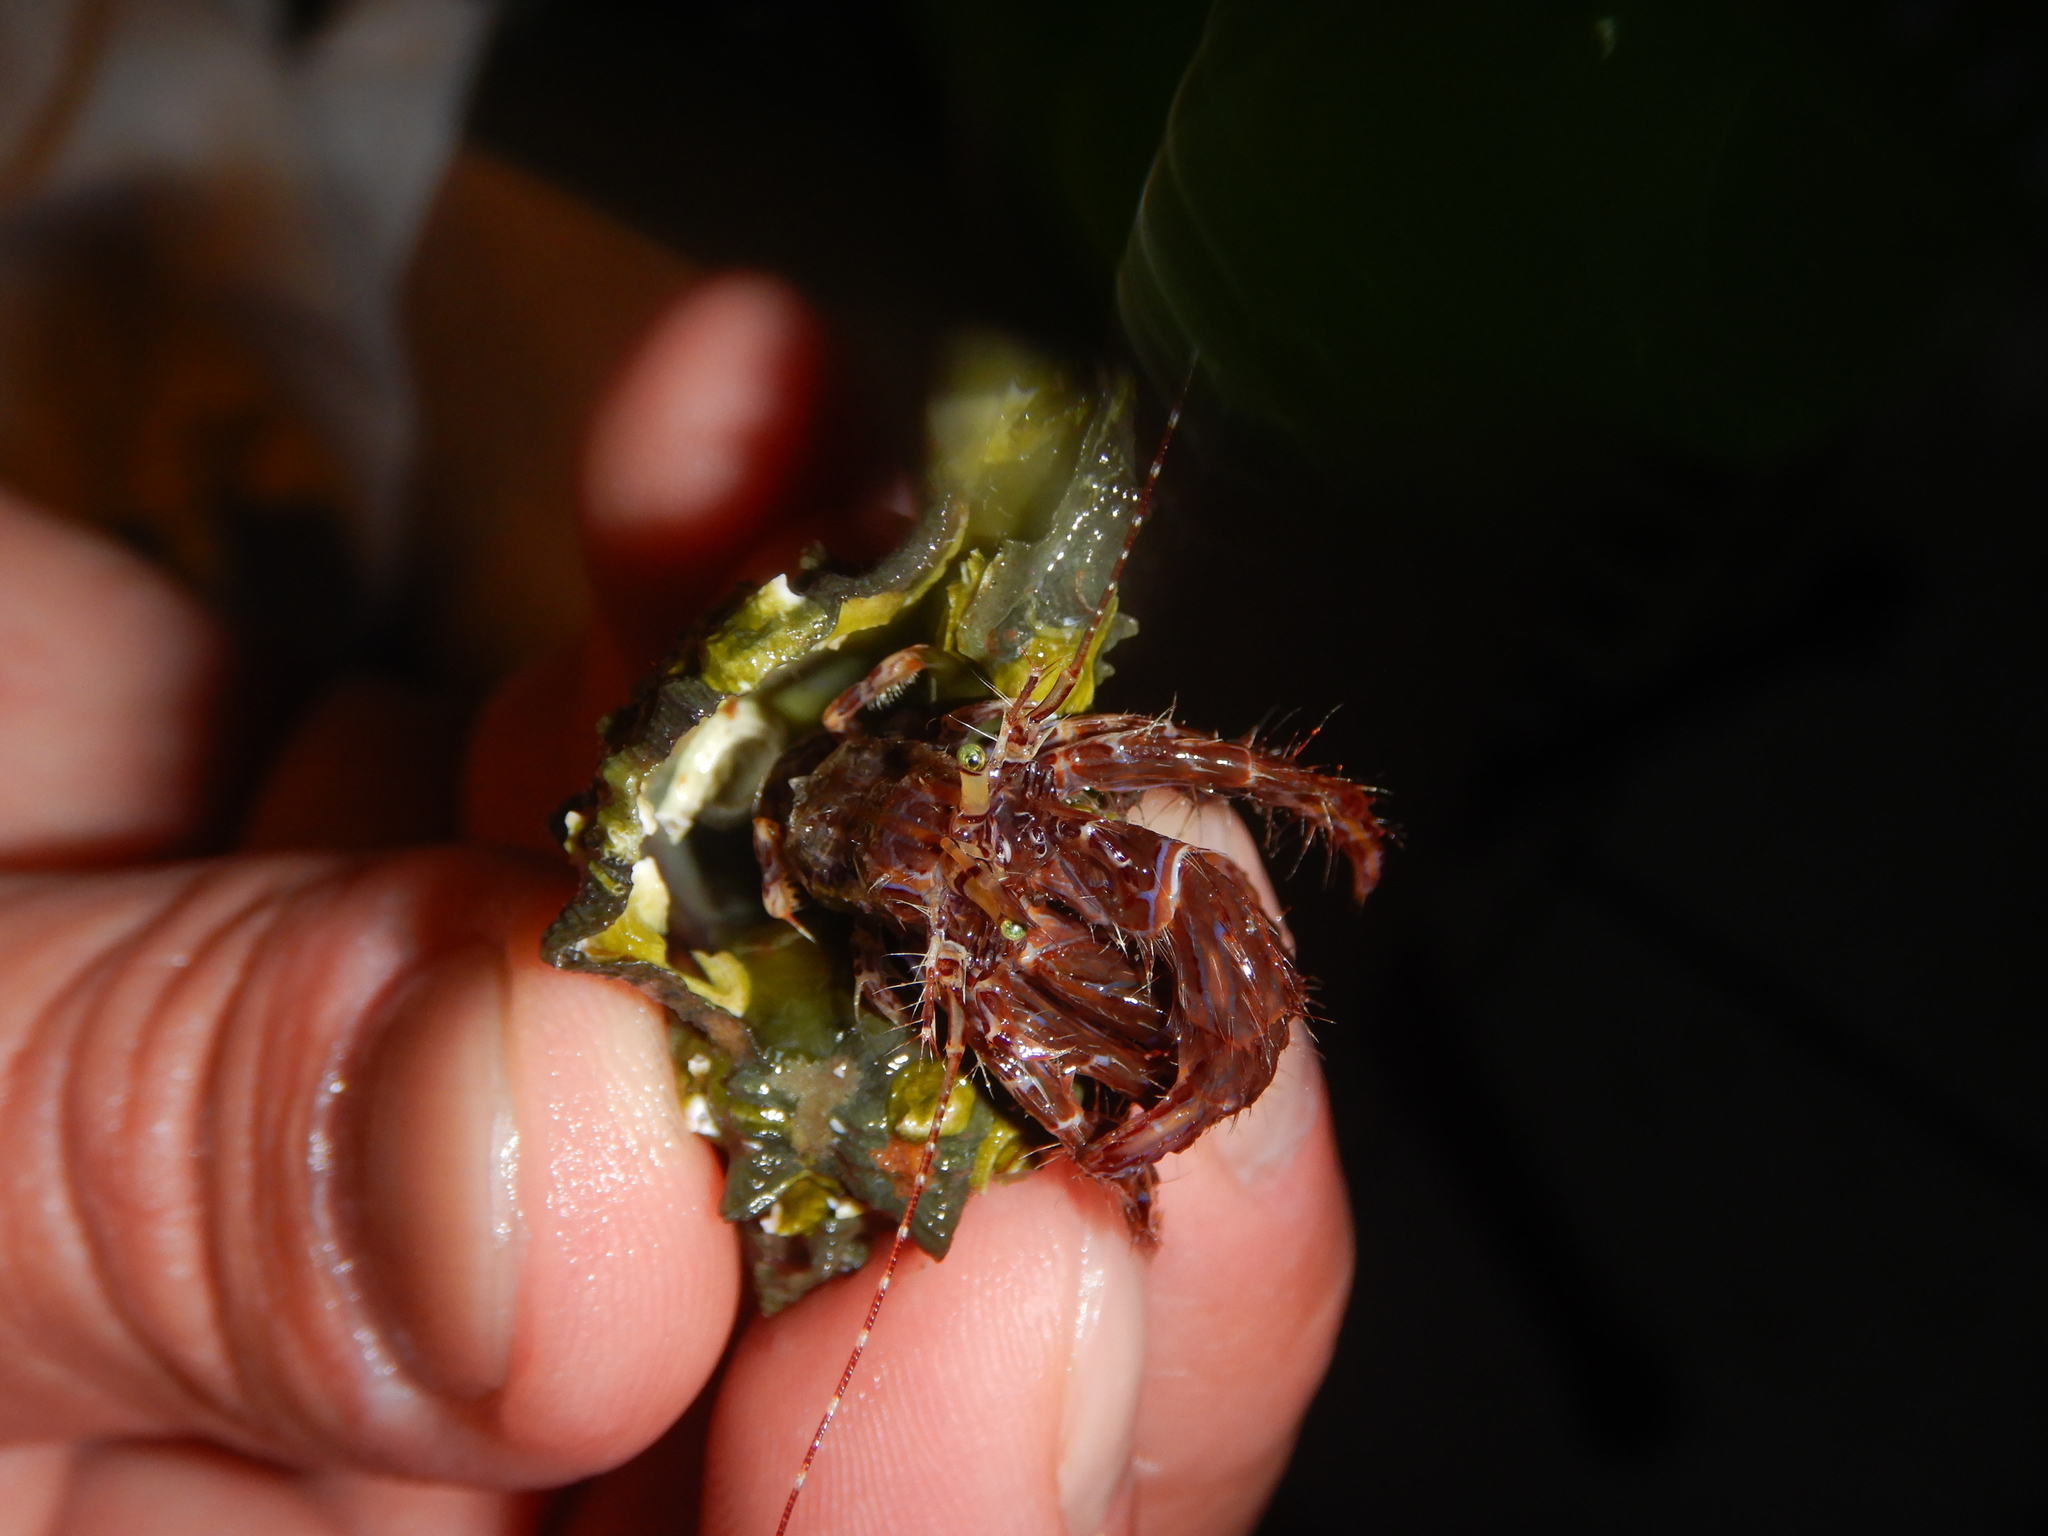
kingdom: Animalia
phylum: Arthropoda
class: Malacostraca
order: Decapoda
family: Paguridae
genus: Pagurus
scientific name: Pagurus anachoretus
